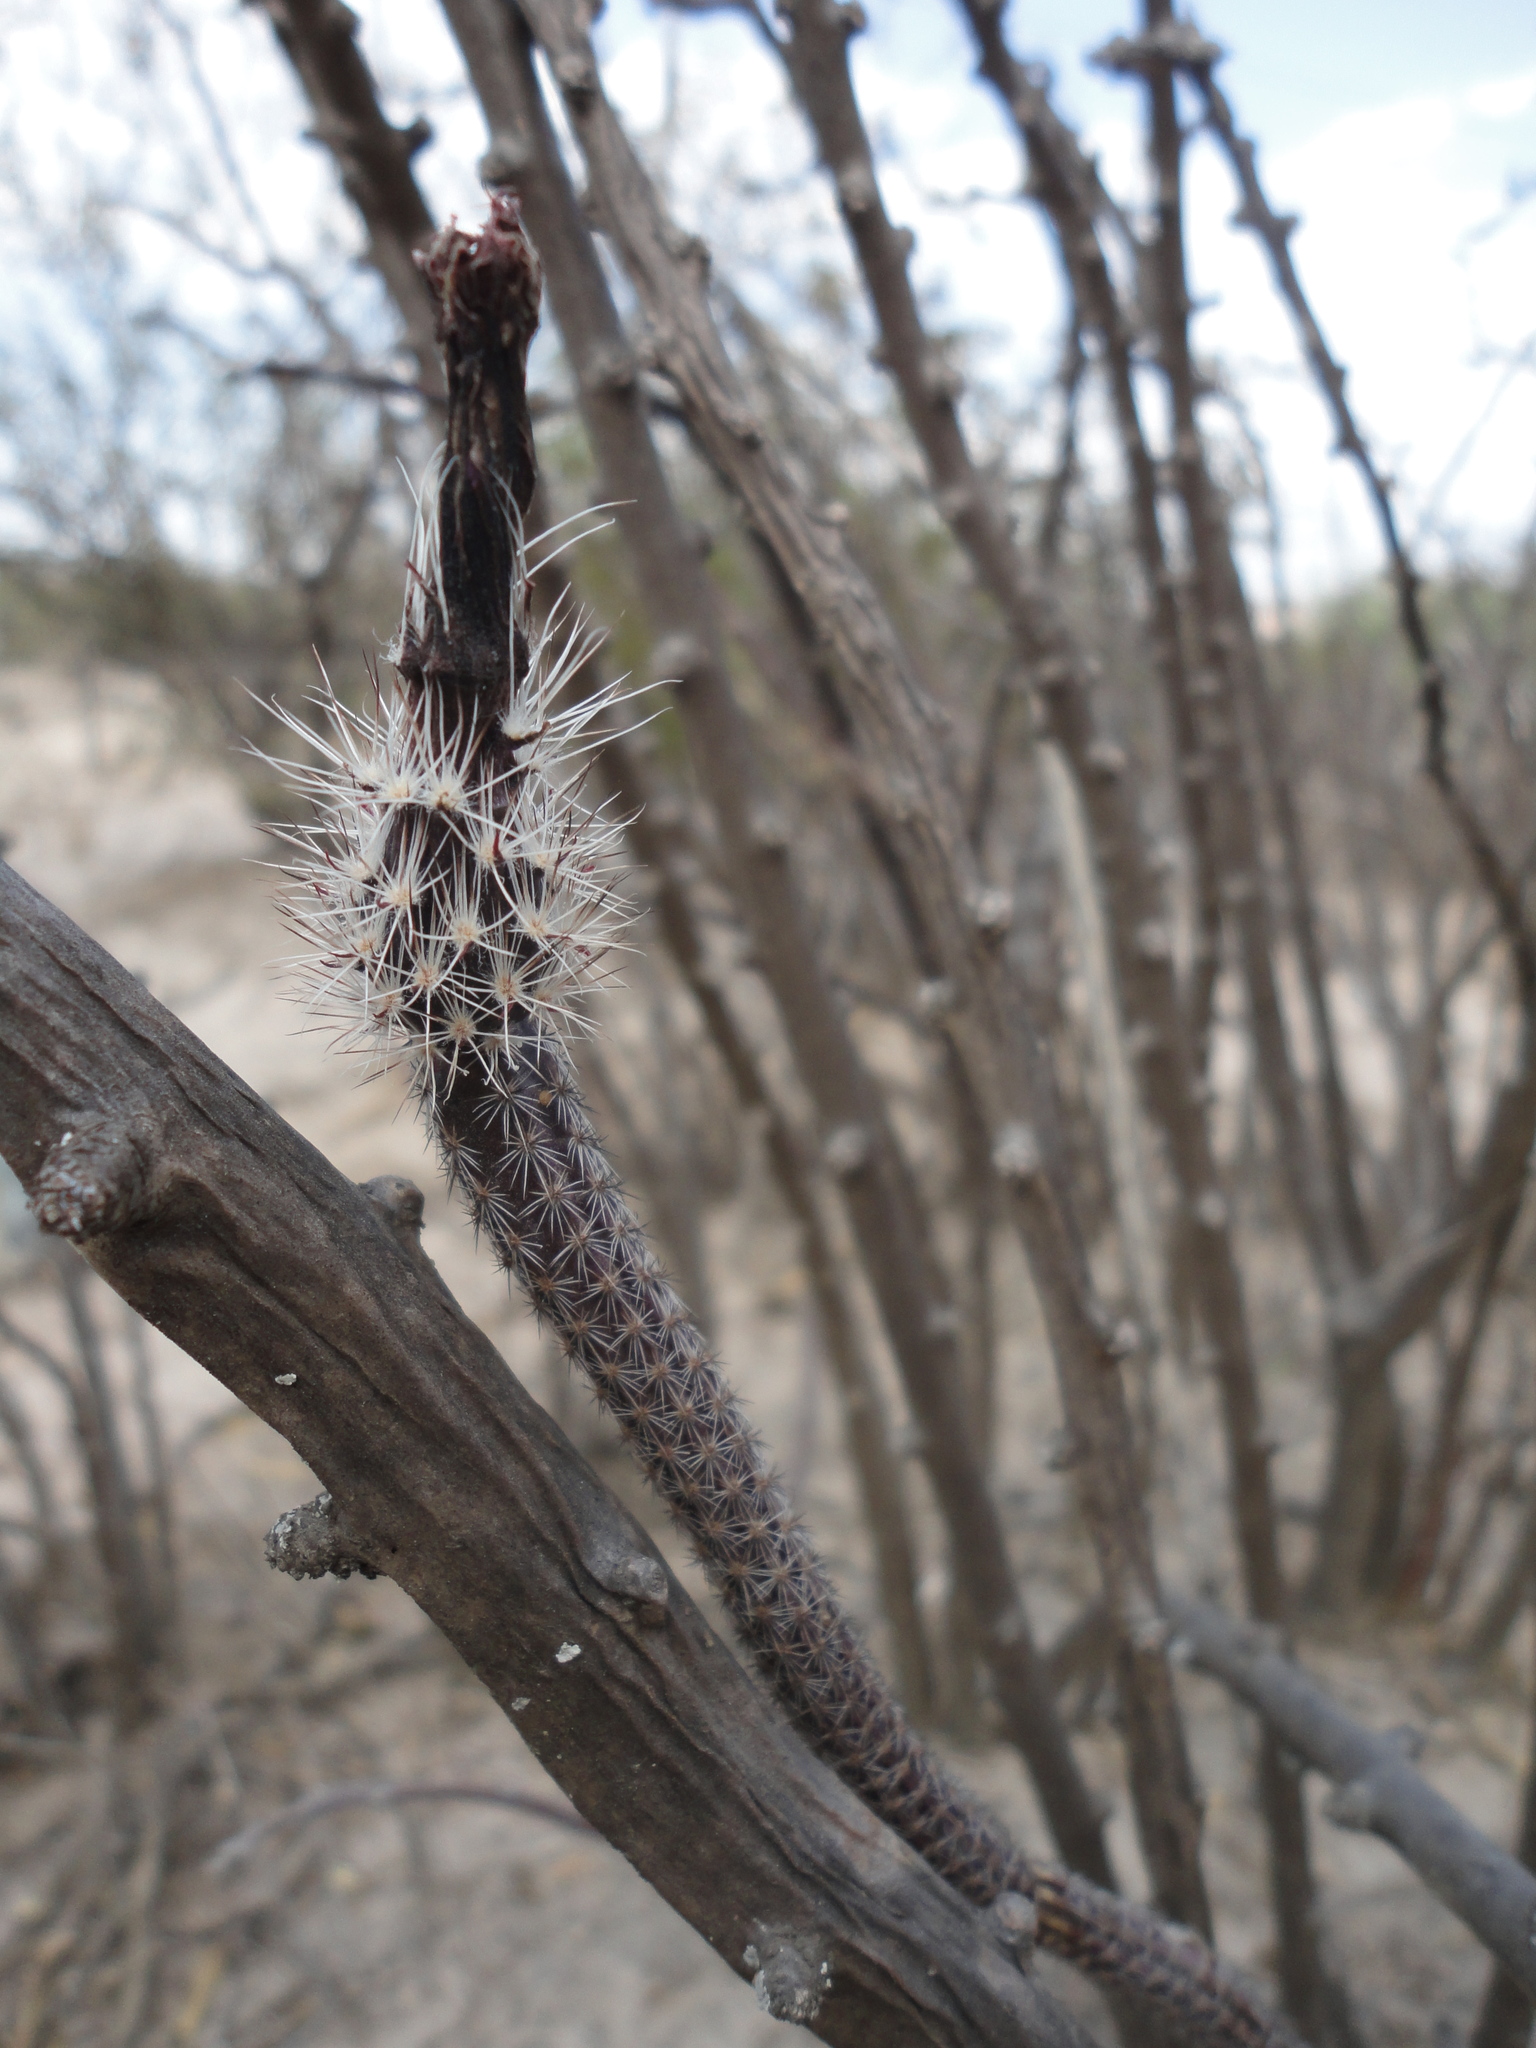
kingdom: Plantae
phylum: Tracheophyta
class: Magnoliopsida
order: Caryophyllales
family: Cactaceae
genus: Echinocereus
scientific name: Echinocereus tamaulipensis
